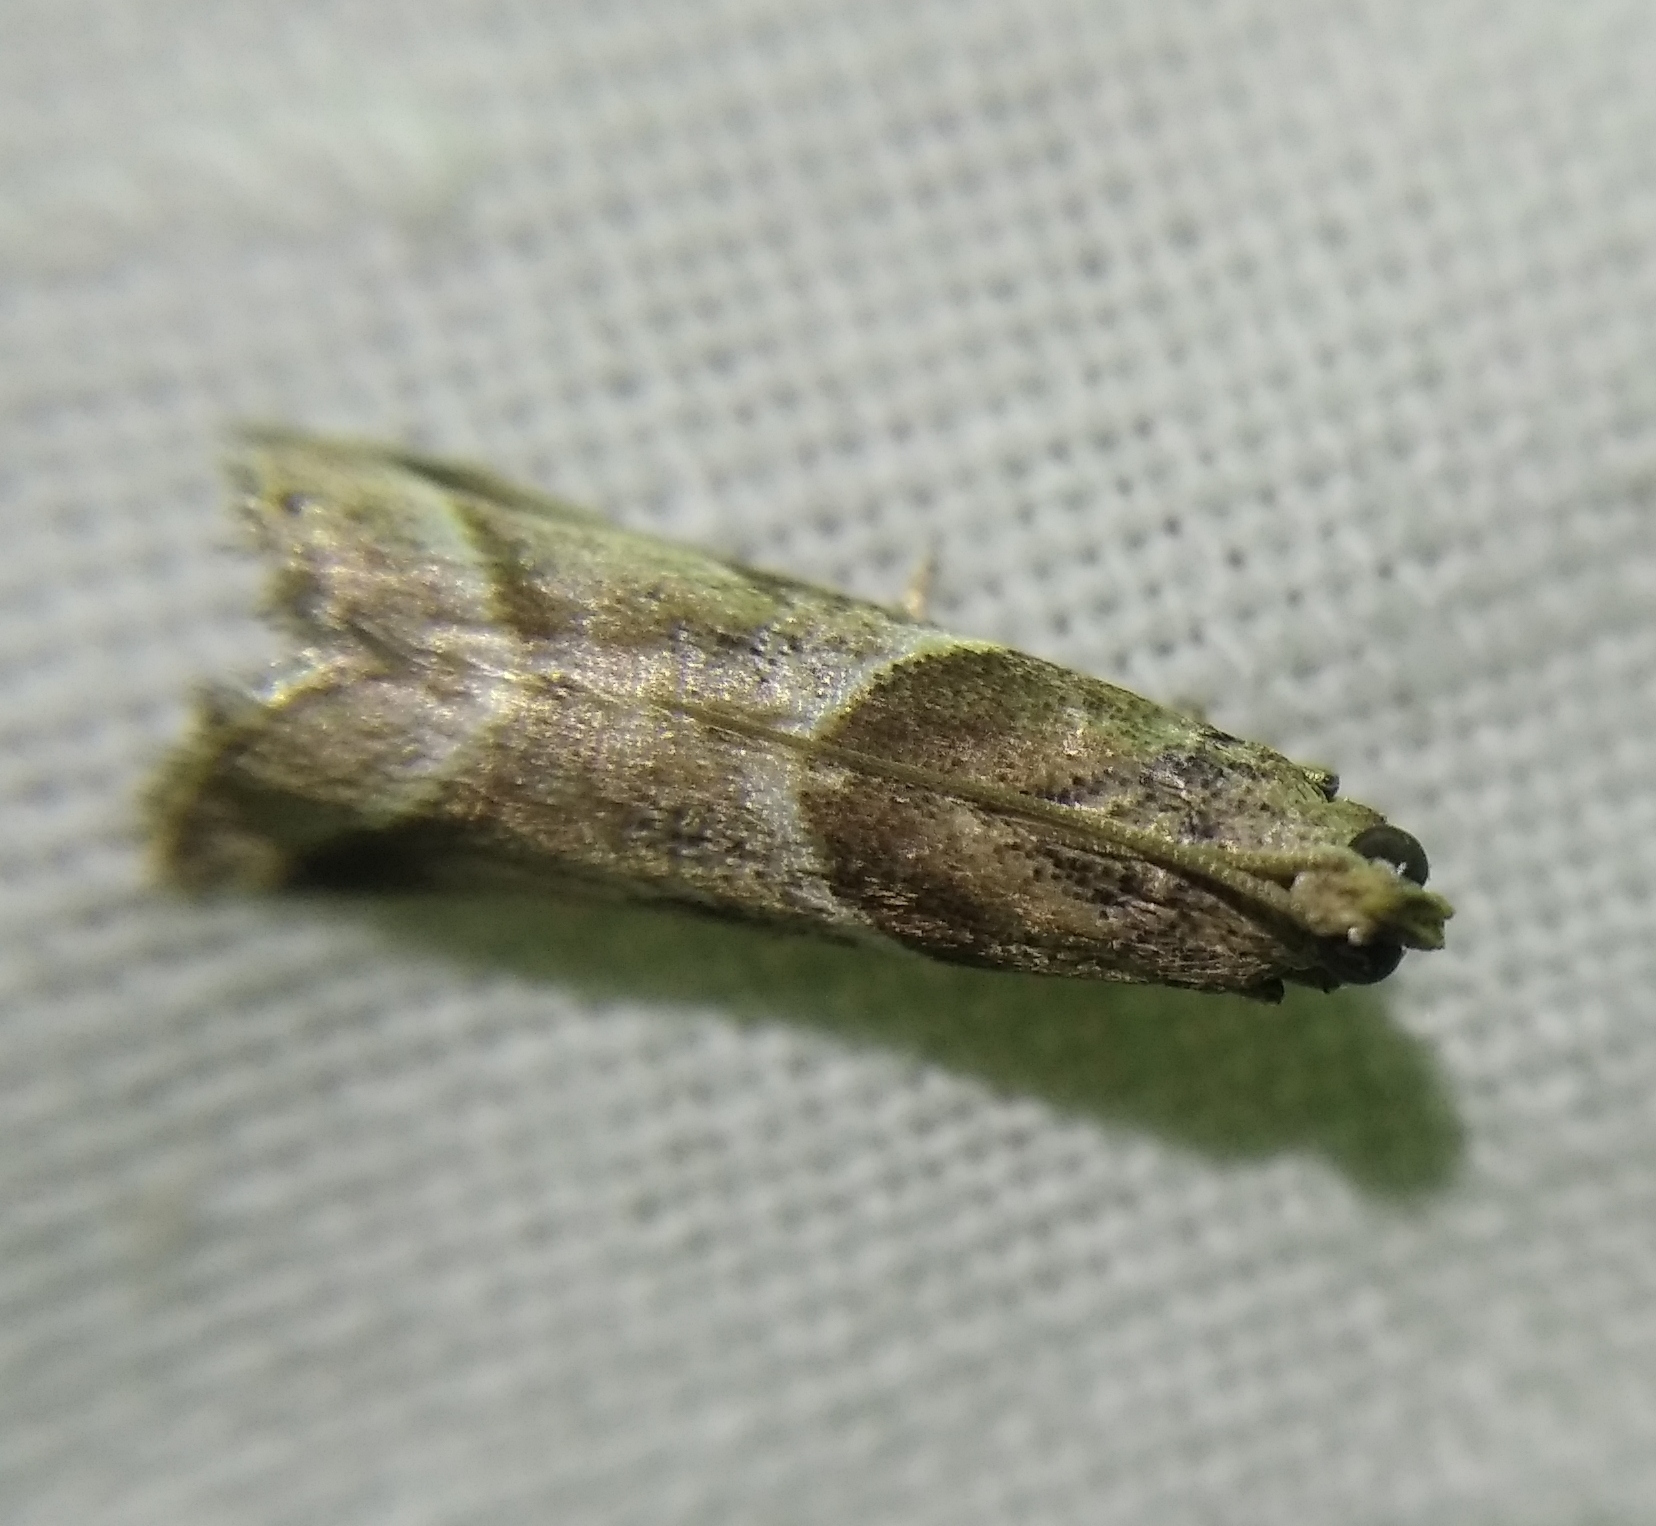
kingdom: Animalia
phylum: Arthropoda
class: Insecta
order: Lepidoptera
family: Pyralidae
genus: Nyctegretis
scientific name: Nyctegretis lineana
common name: Agate knot-horn
